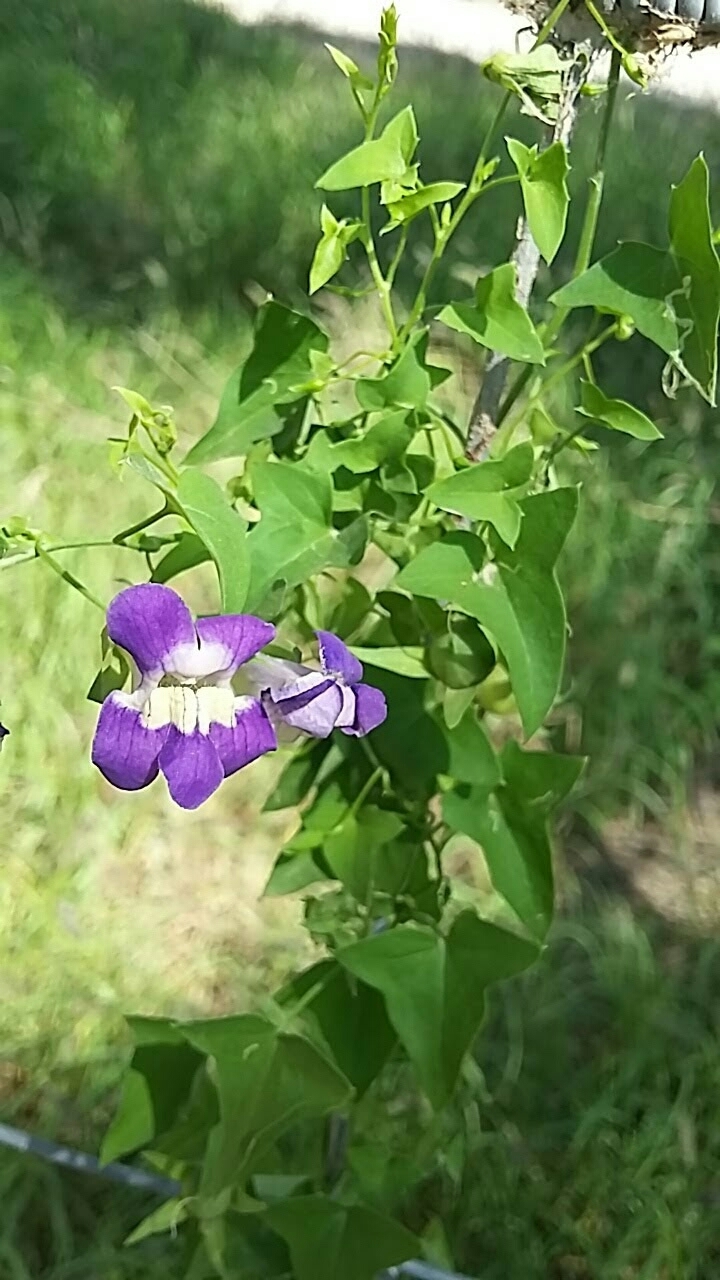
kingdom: Plantae
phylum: Tracheophyta
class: Magnoliopsida
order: Lamiales
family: Plantaginaceae
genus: Maurandella
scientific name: Maurandella antirrhiniflora
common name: Violet twining-snapdragon
